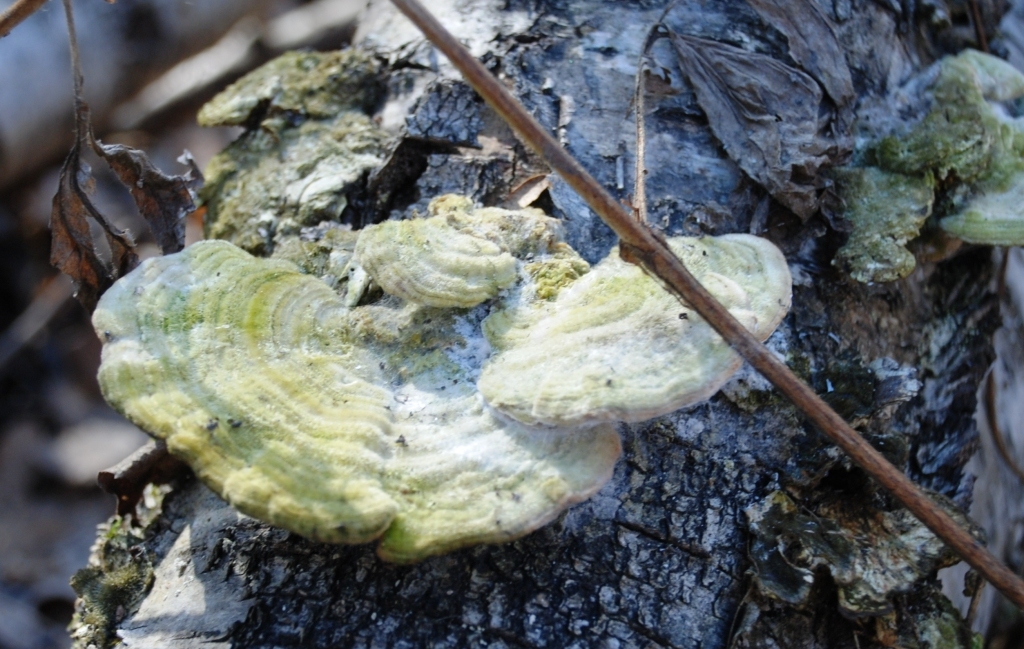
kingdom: Fungi
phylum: Basidiomycota
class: Agaricomycetes
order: Polyporales
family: Polyporaceae
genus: Trametes
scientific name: Trametes hirsuta
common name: Hairy bracket
